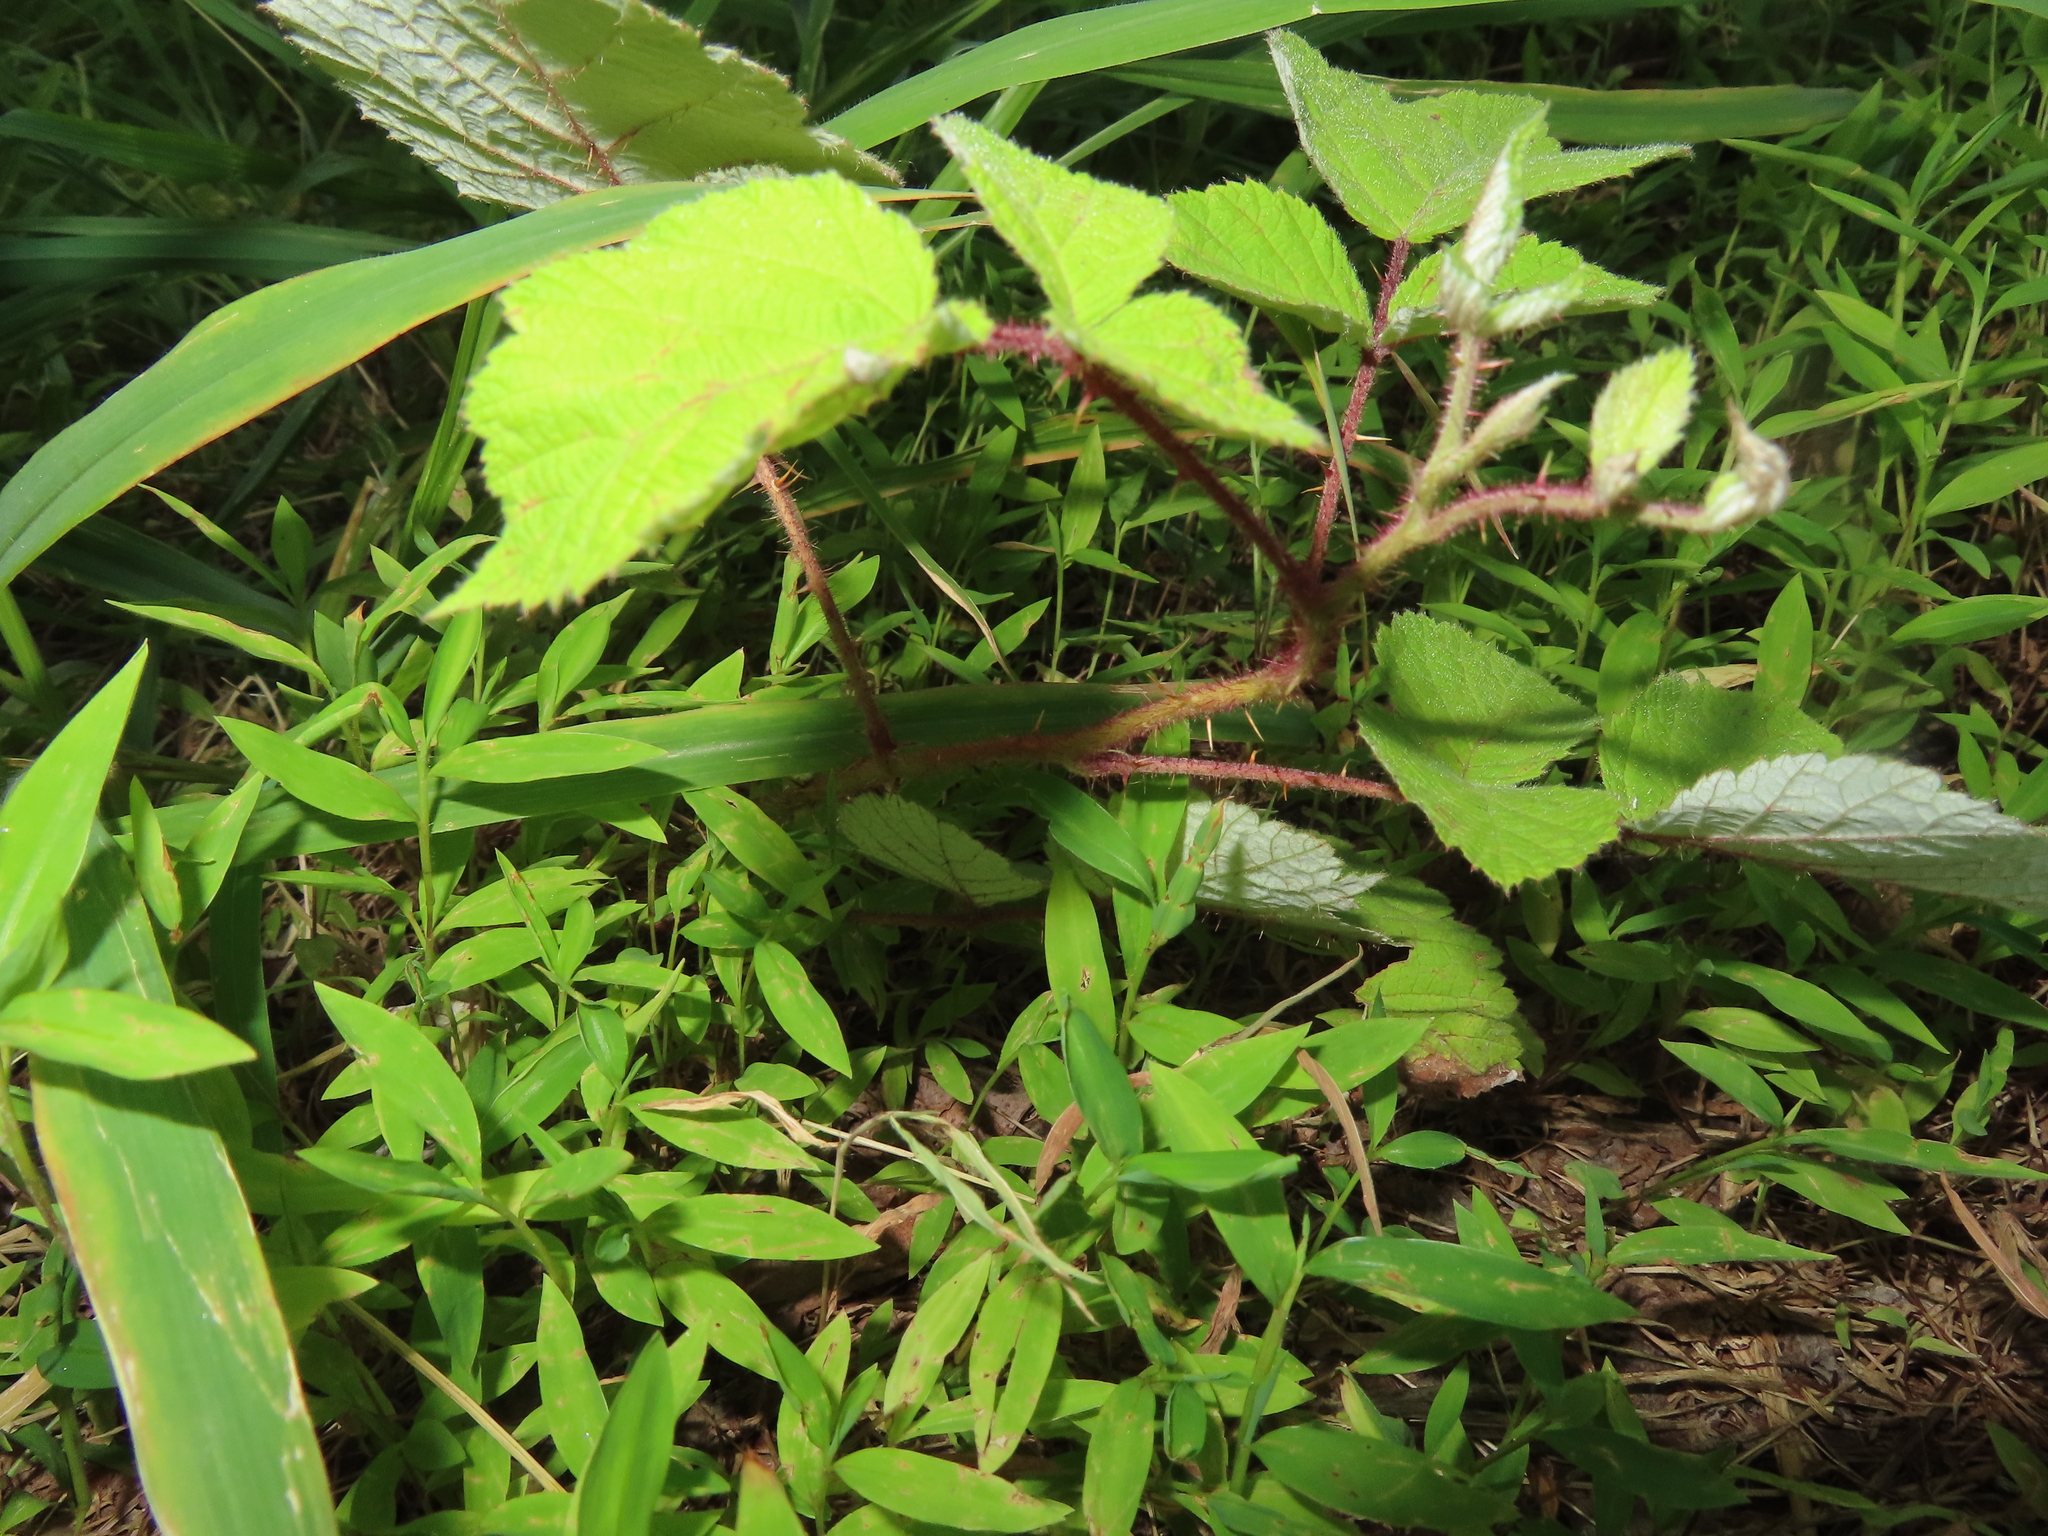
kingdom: Plantae
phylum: Tracheophyta
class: Magnoliopsida
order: Rosales
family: Rosaceae
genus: Rubus
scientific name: Rubus phoenicolasius
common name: Japanese wineberry
